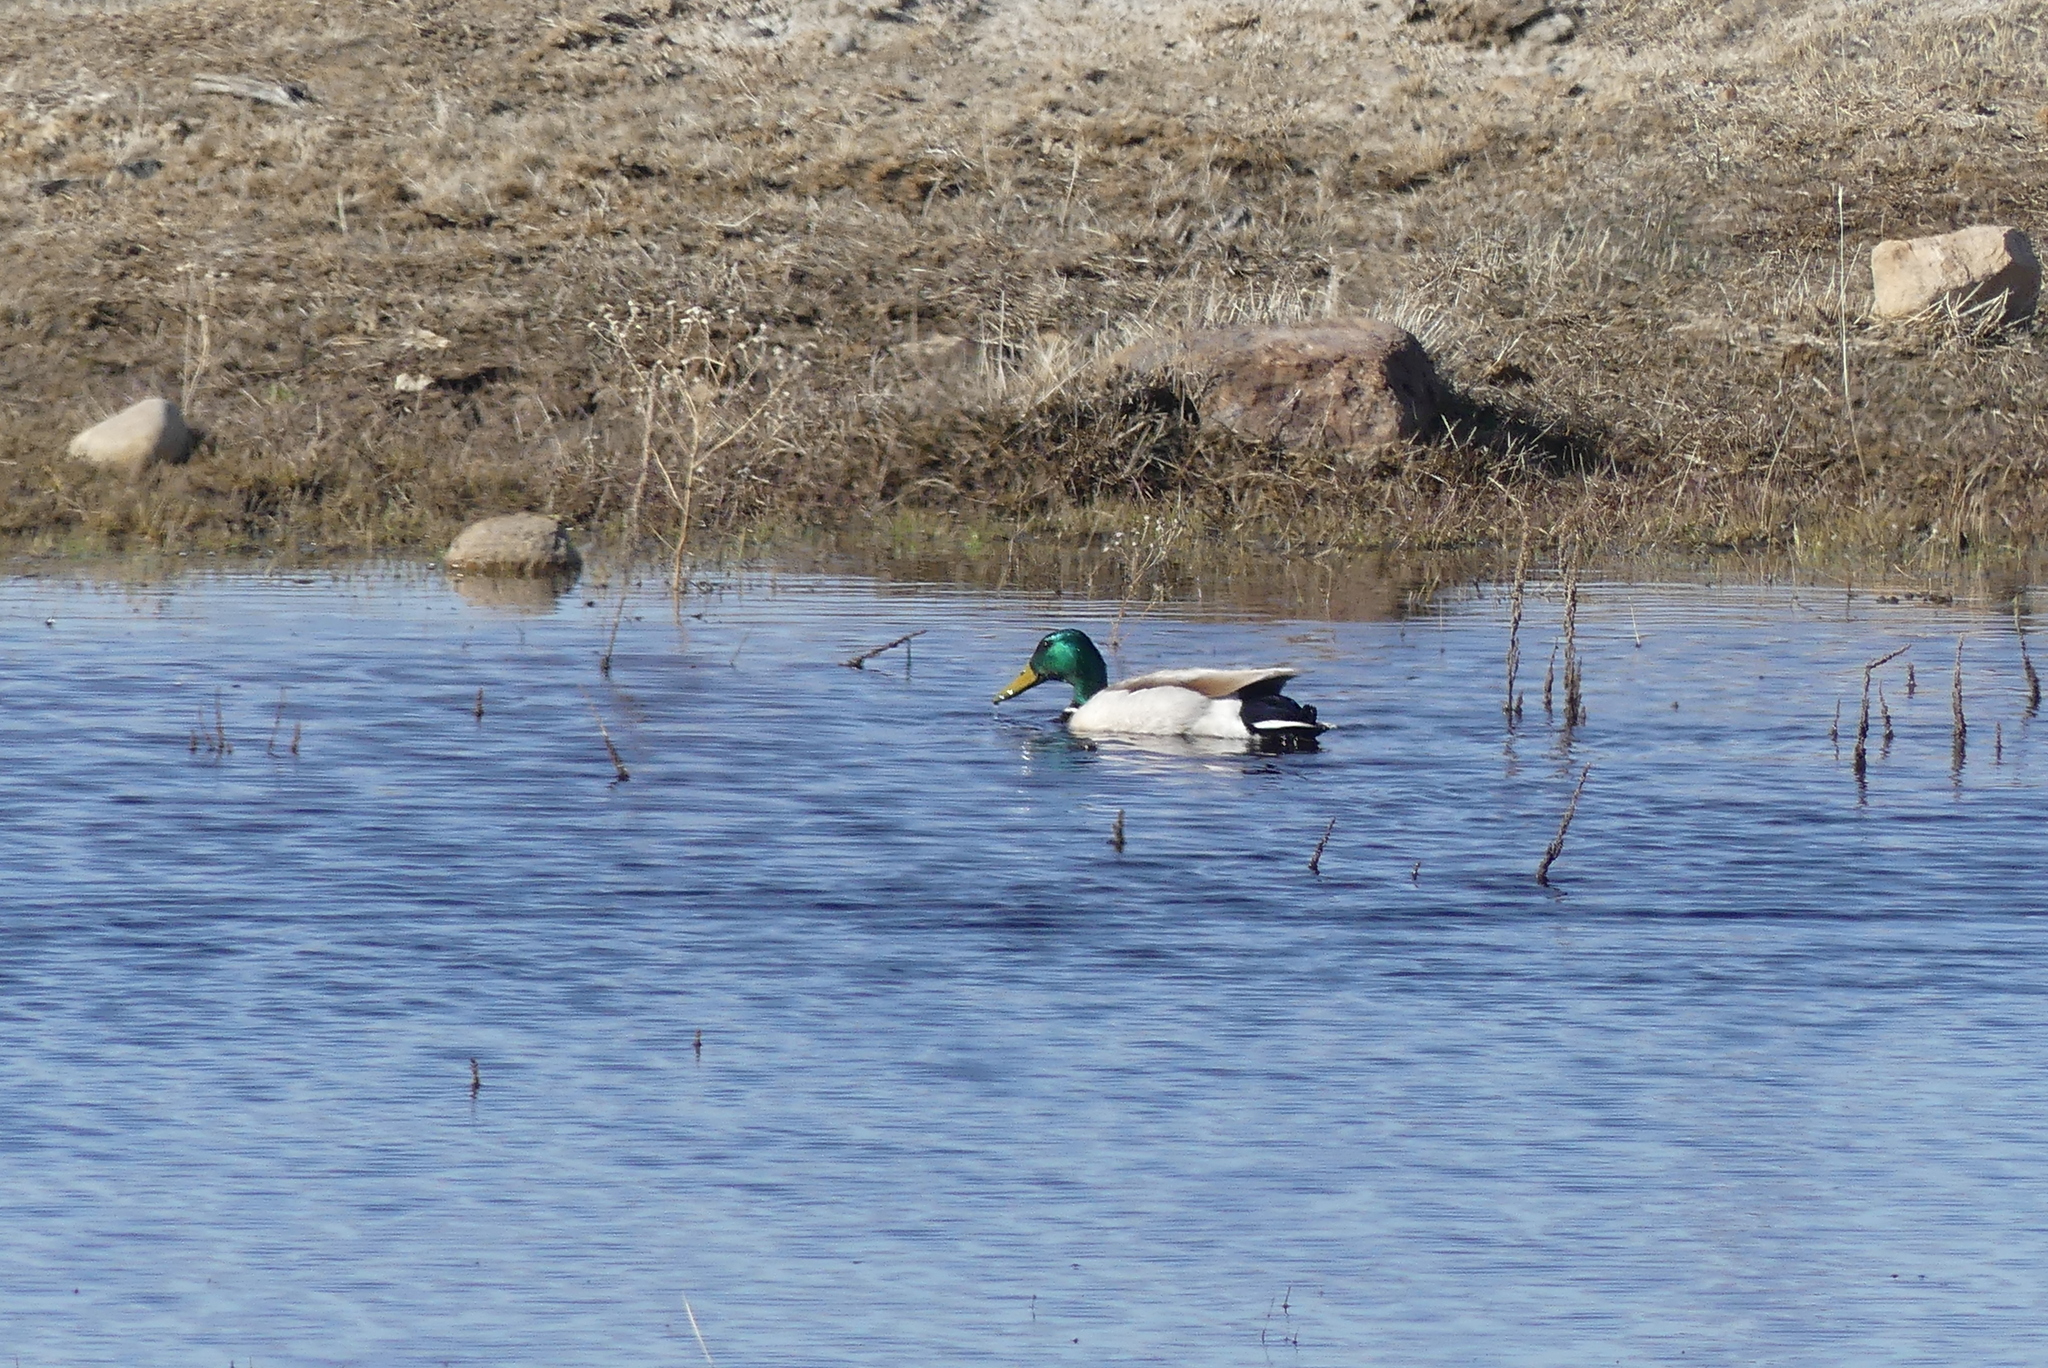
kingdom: Animalia
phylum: Chordata
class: Aves
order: Anseriformes
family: Anatidae
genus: Anas
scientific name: Anas platyrhynchos
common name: Mallard
